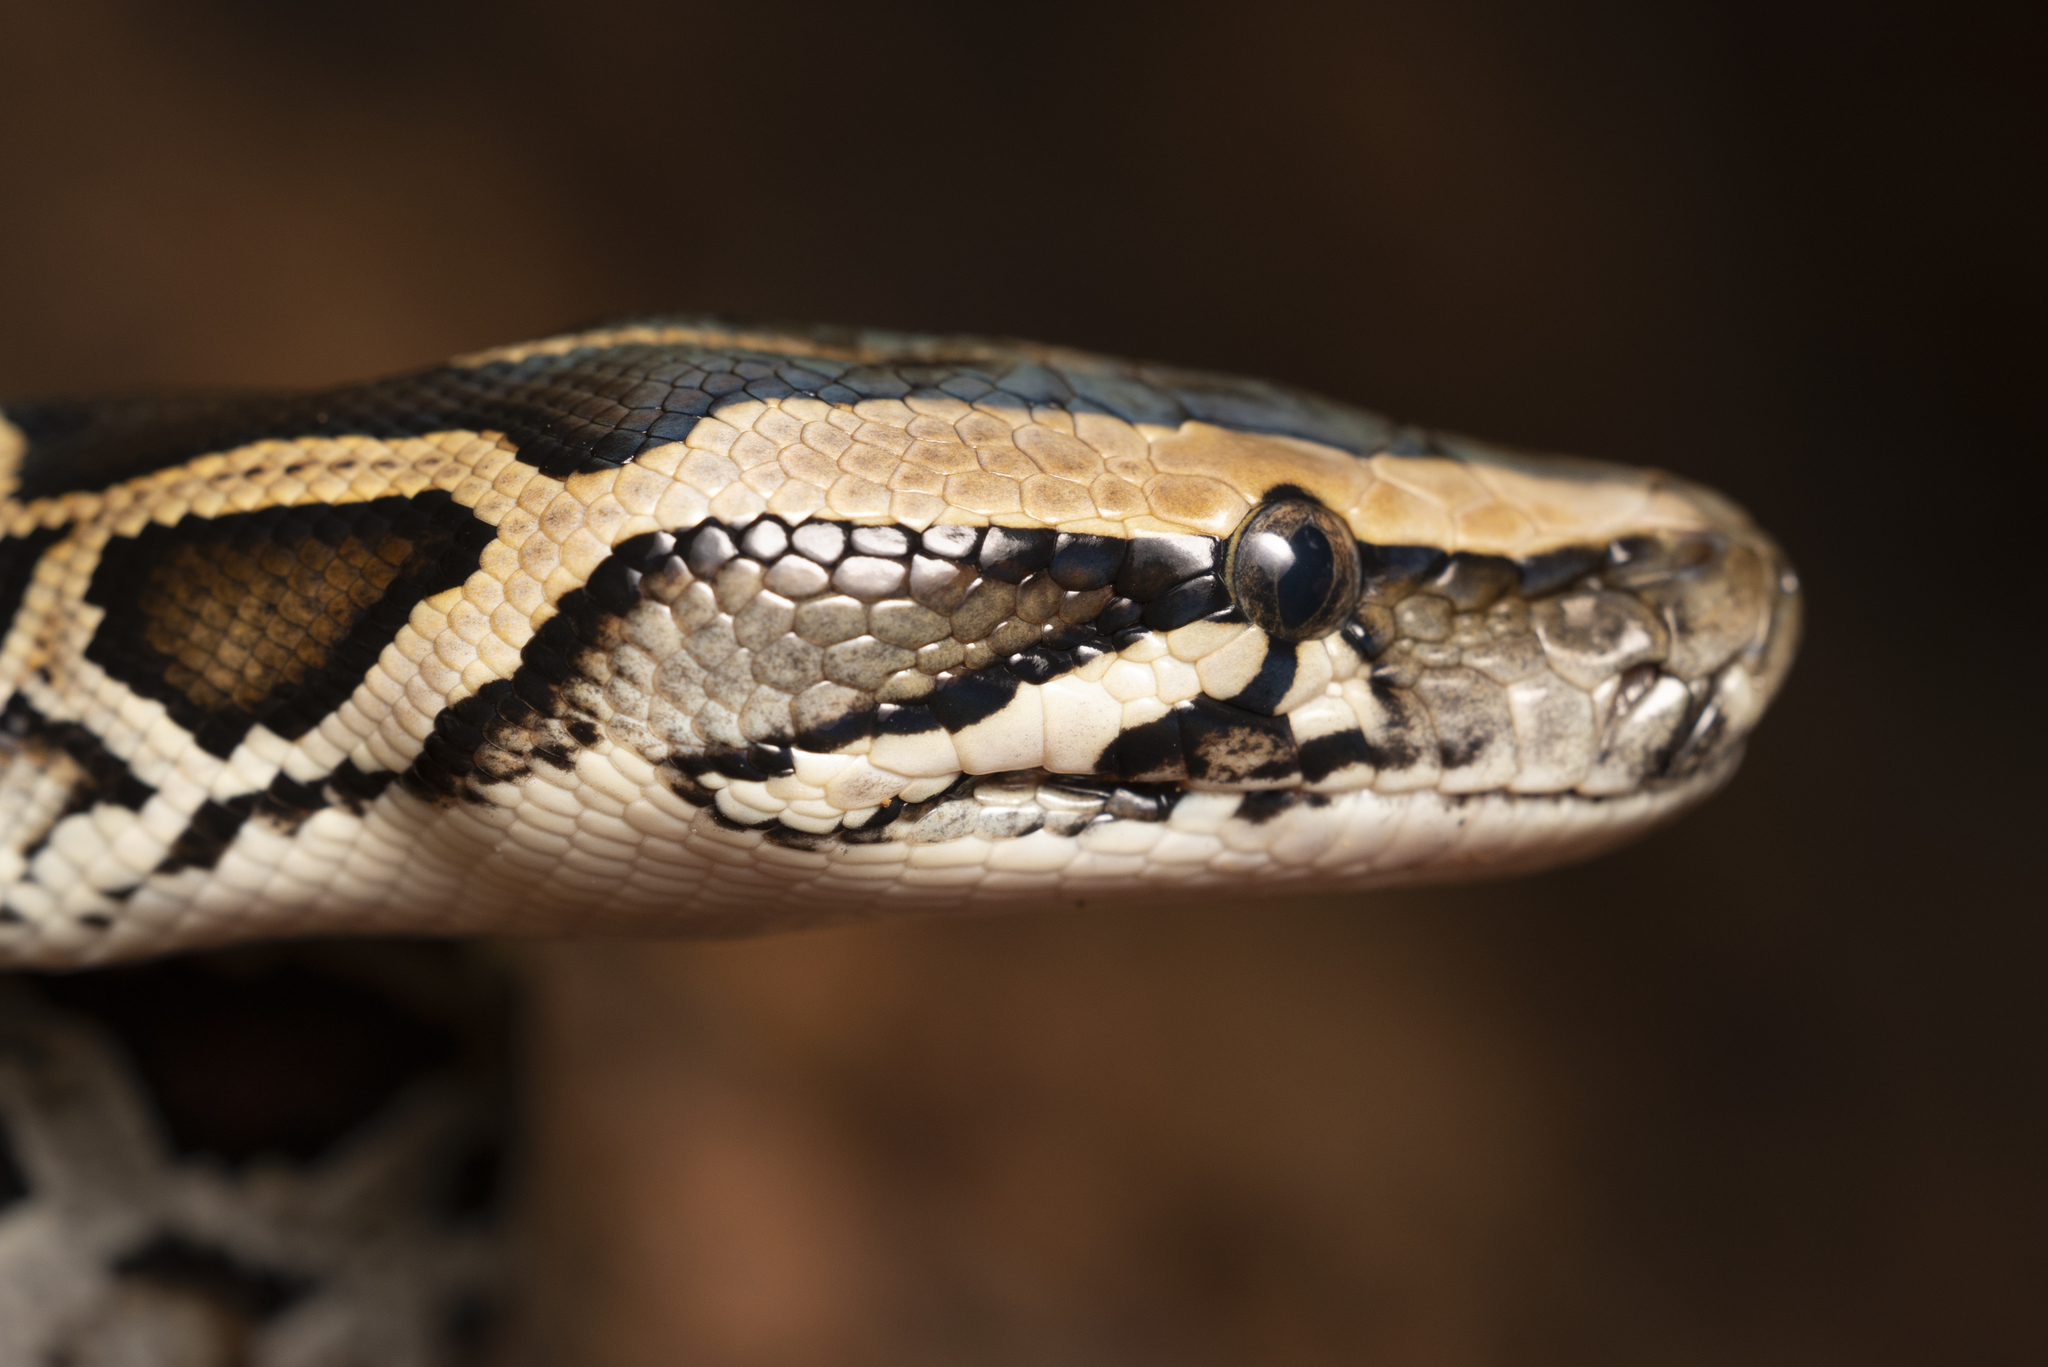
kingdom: Animalia
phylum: Chordata
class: Squamata
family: Pythonidae
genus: Python
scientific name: Python bivittatus
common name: Burmese python
